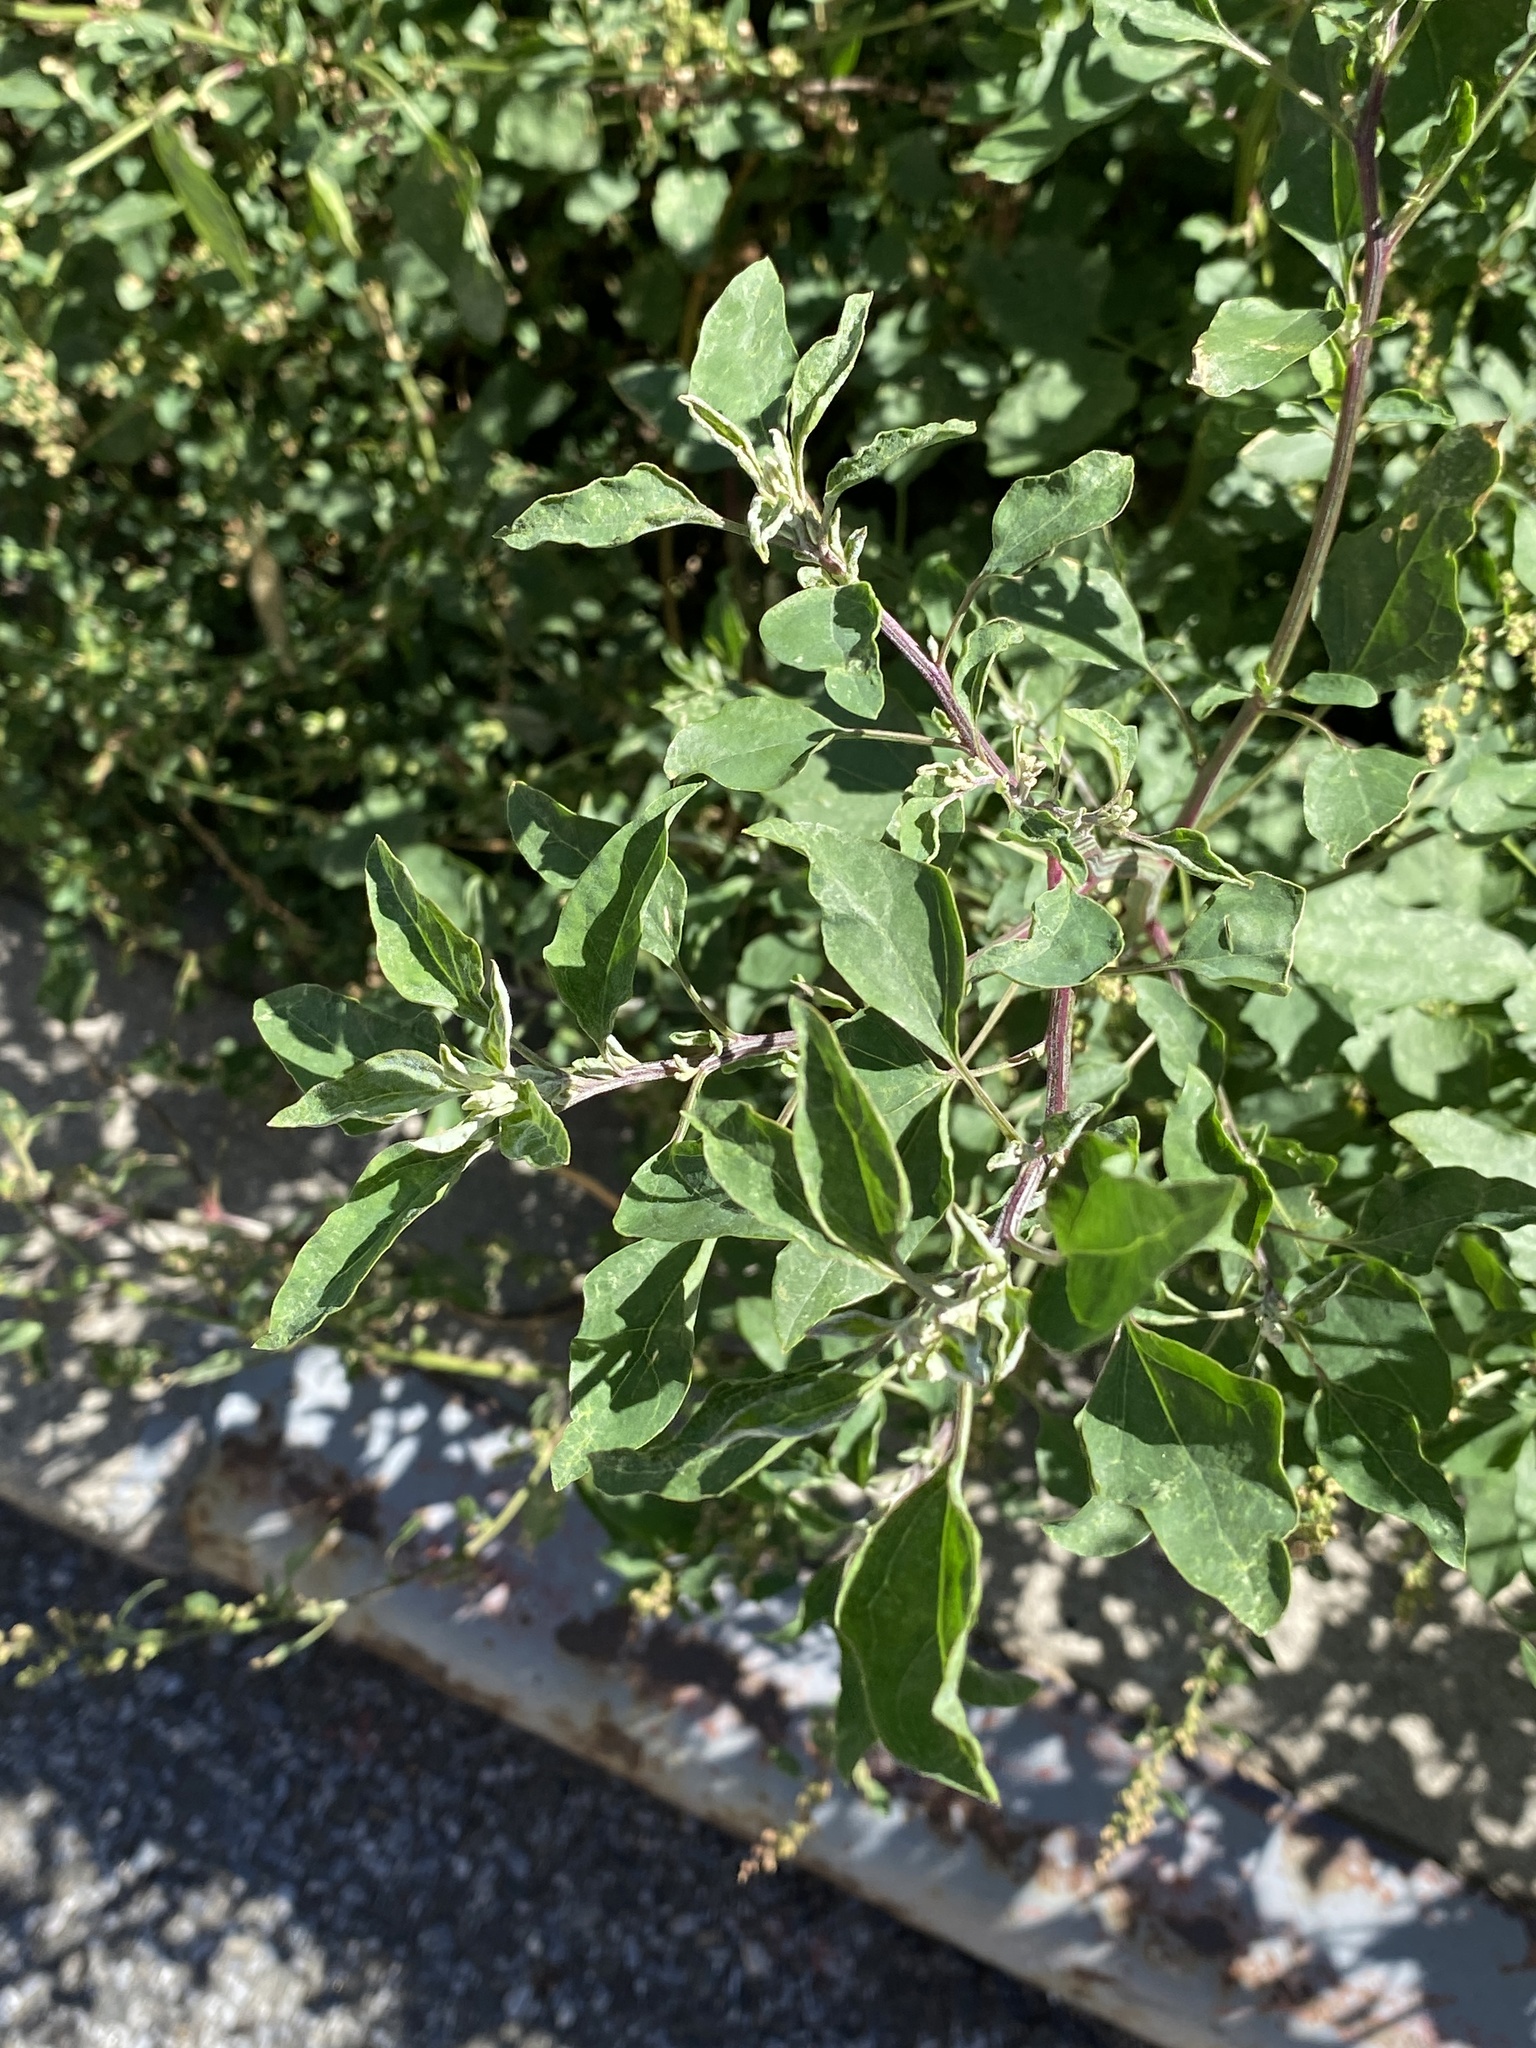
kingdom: Plantae
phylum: Tracheophyta
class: Magnoliopsida
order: Caryophyllales
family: Amaranthaceae
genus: Chenopodium
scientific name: Chenopodium album
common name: Fat-hen
